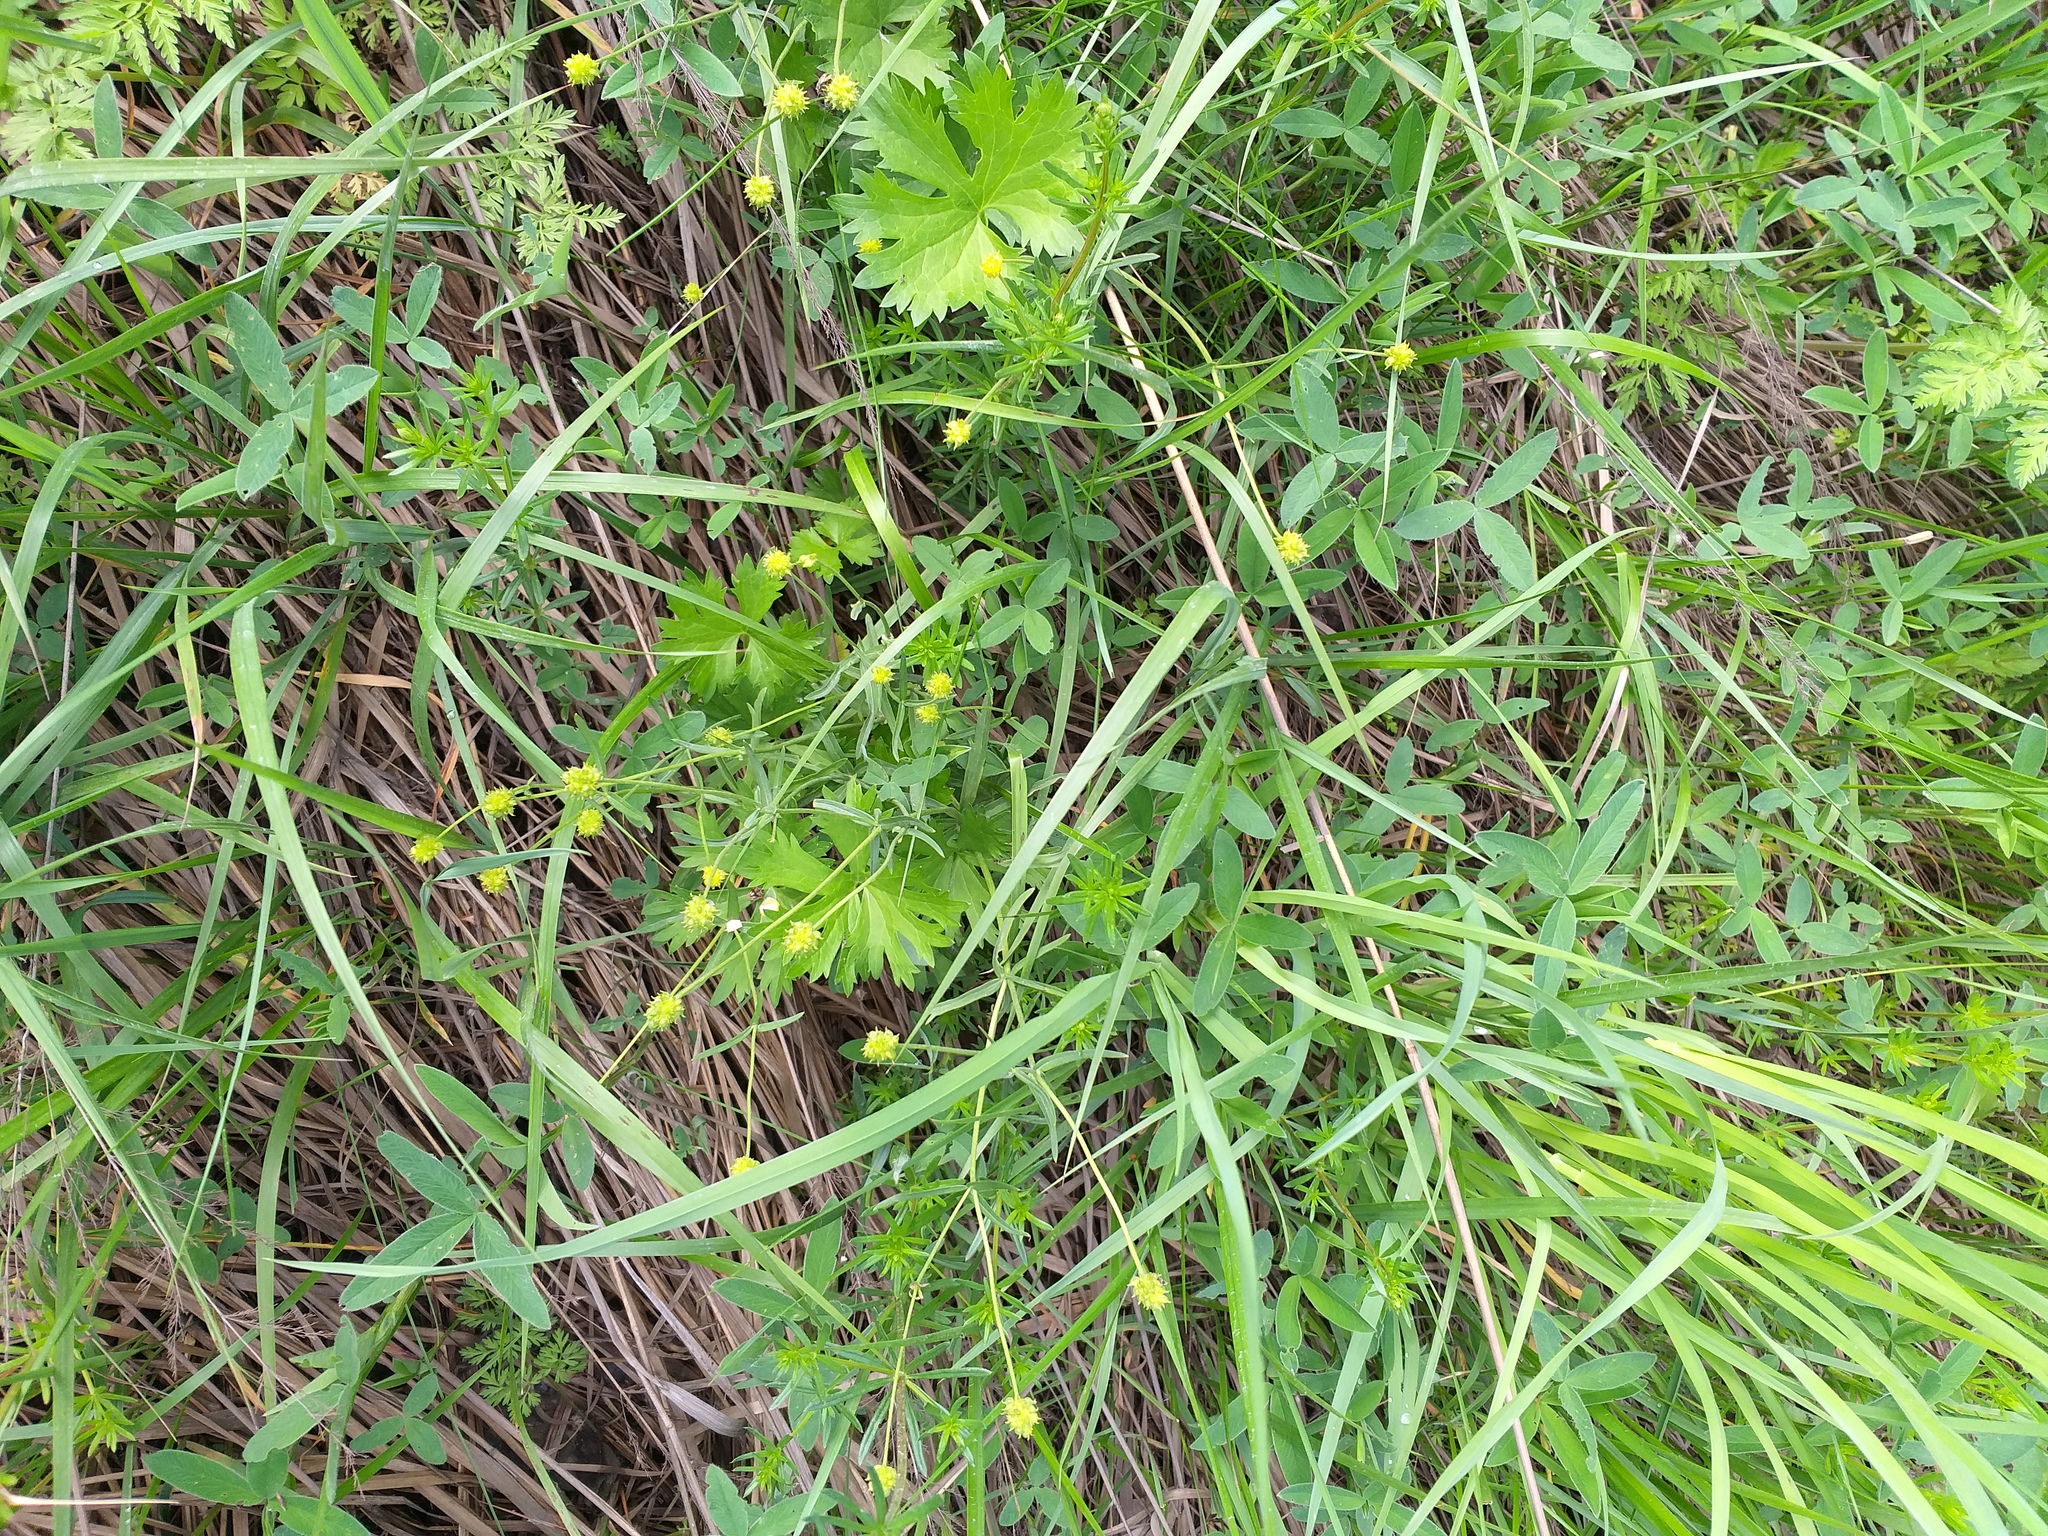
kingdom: Plantae
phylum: Tracheophyta
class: Magnoliopsida
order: Ranunculales
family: Ranunculaceae
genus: Ranunculus
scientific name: Ranunculus auricomus
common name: Goldilocks buttercup
